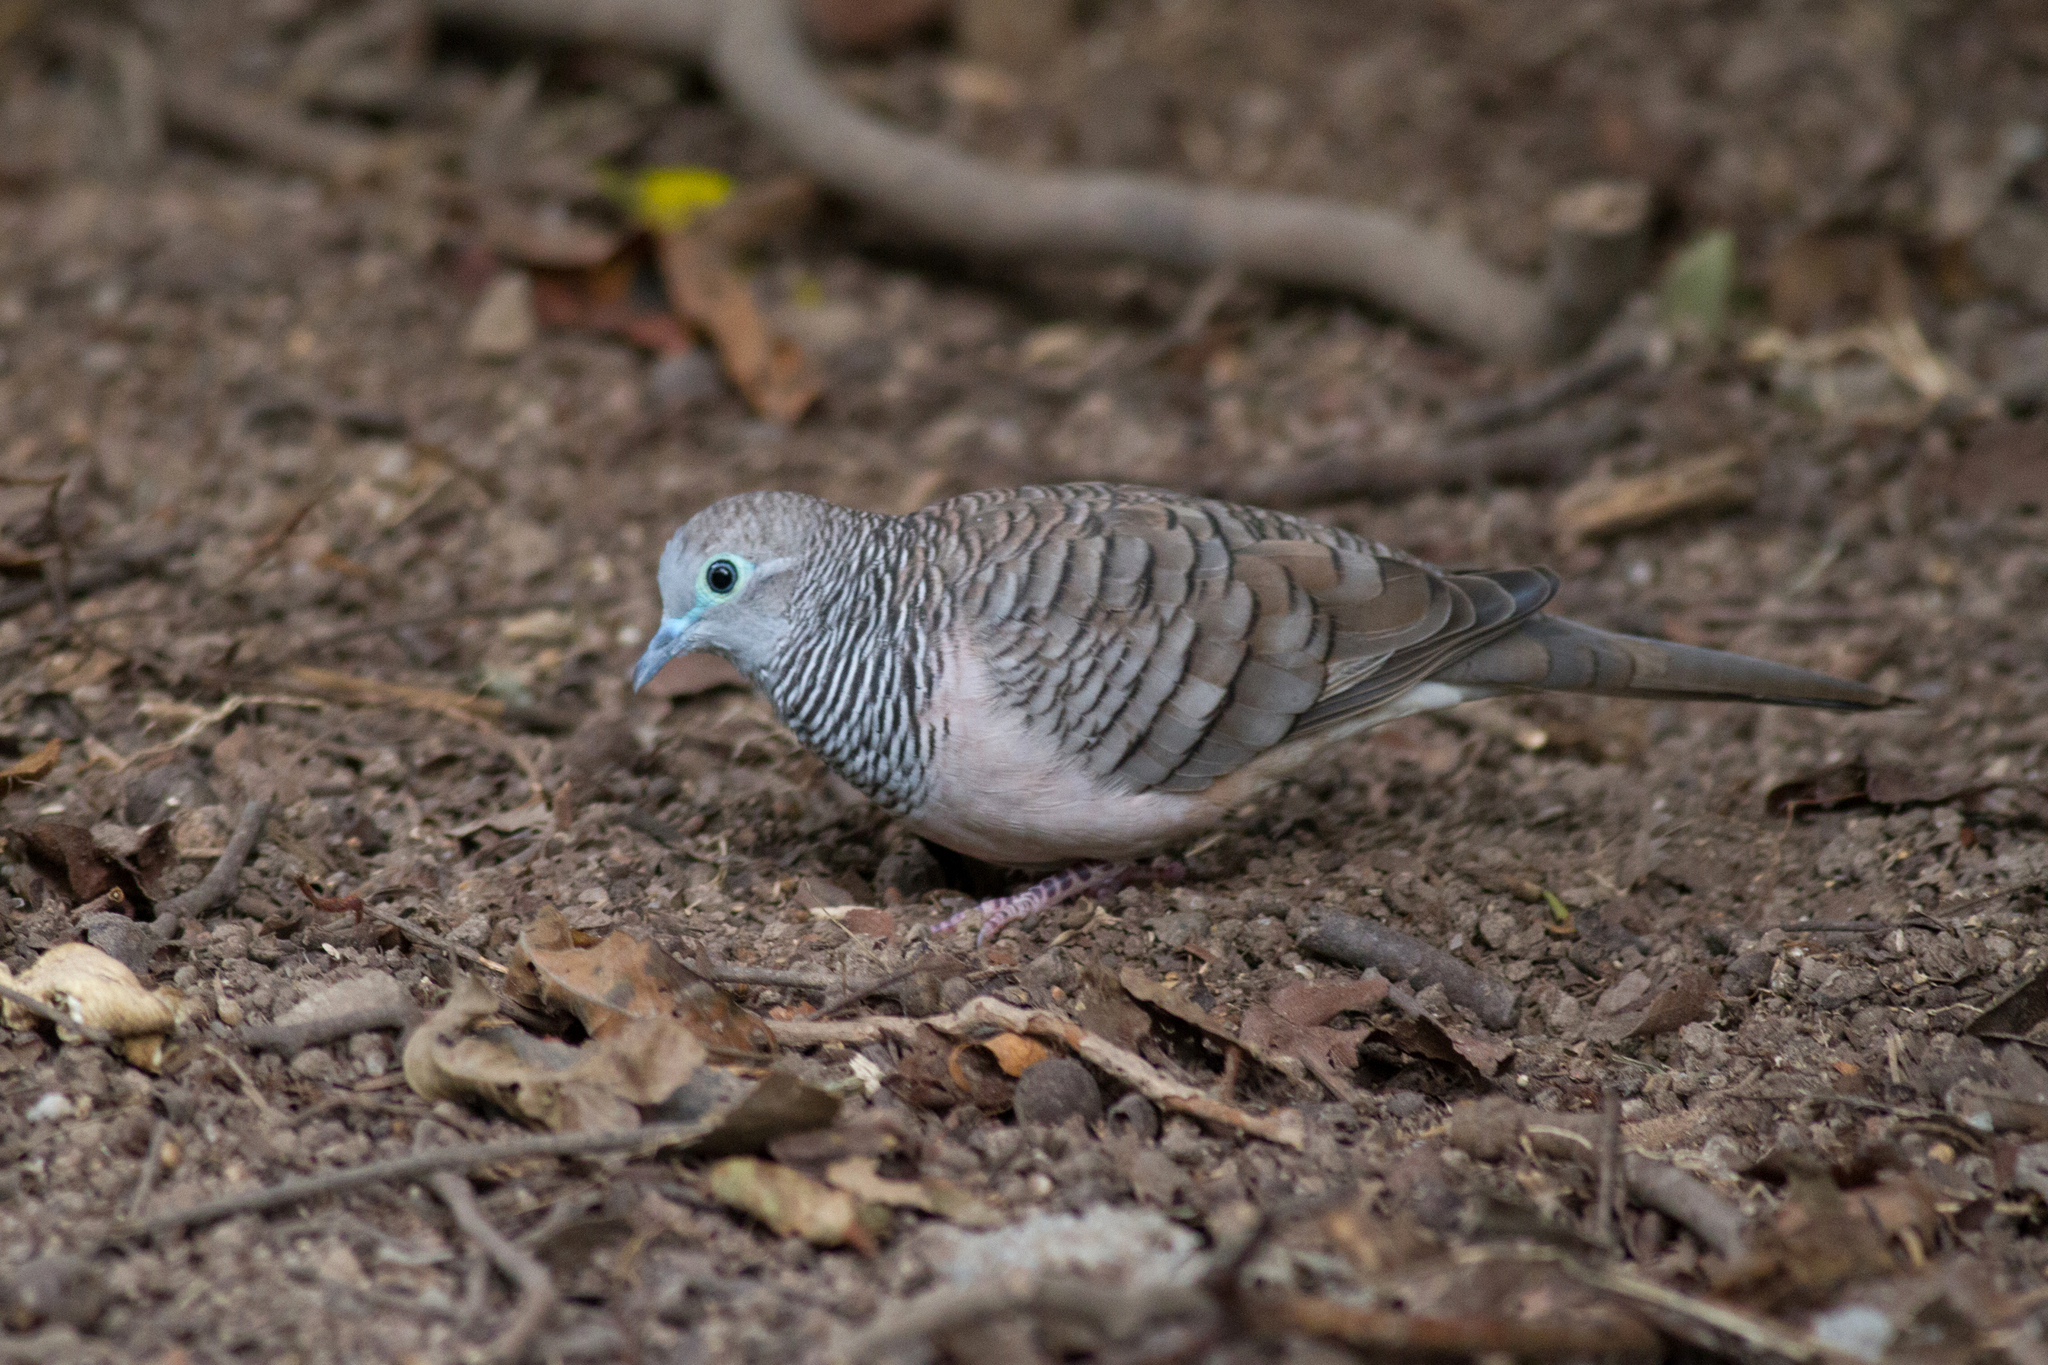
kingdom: Animalia
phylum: Chordata
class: Aves
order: Columbiformes
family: Columbidae
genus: Geopelia
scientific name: Geopelia placida
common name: Peaceful dove
